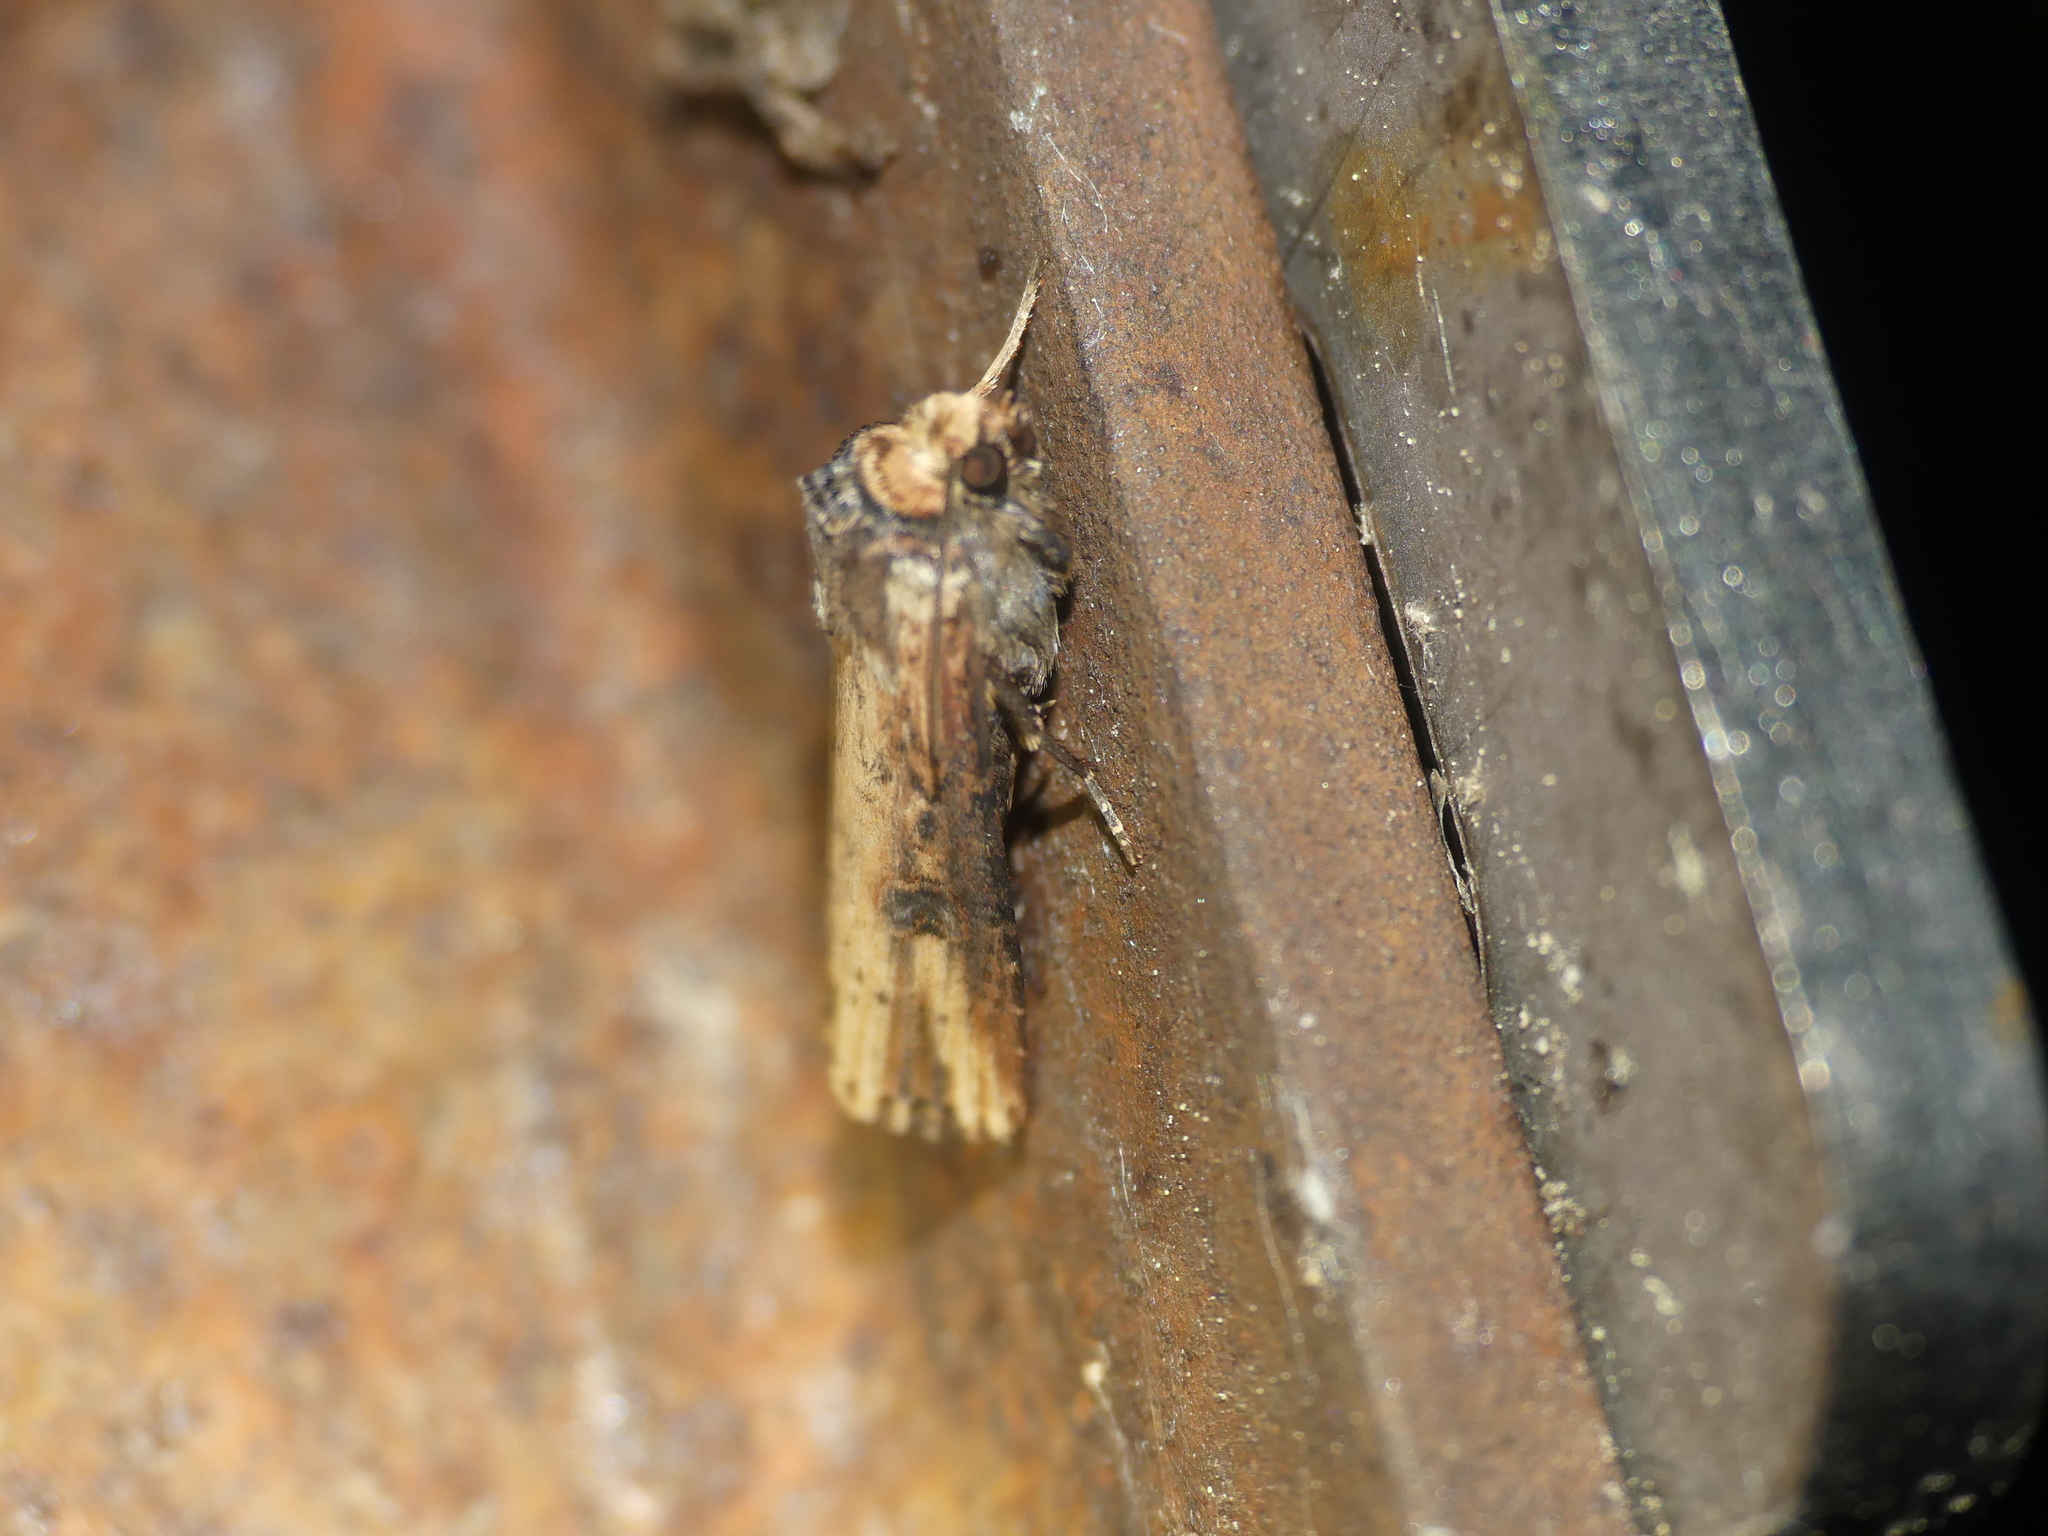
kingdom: Animalia
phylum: Arthropoda
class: Insecta
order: Lepidoptera
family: Noctuidae
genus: Axylia
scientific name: Axylia putris
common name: Flame
